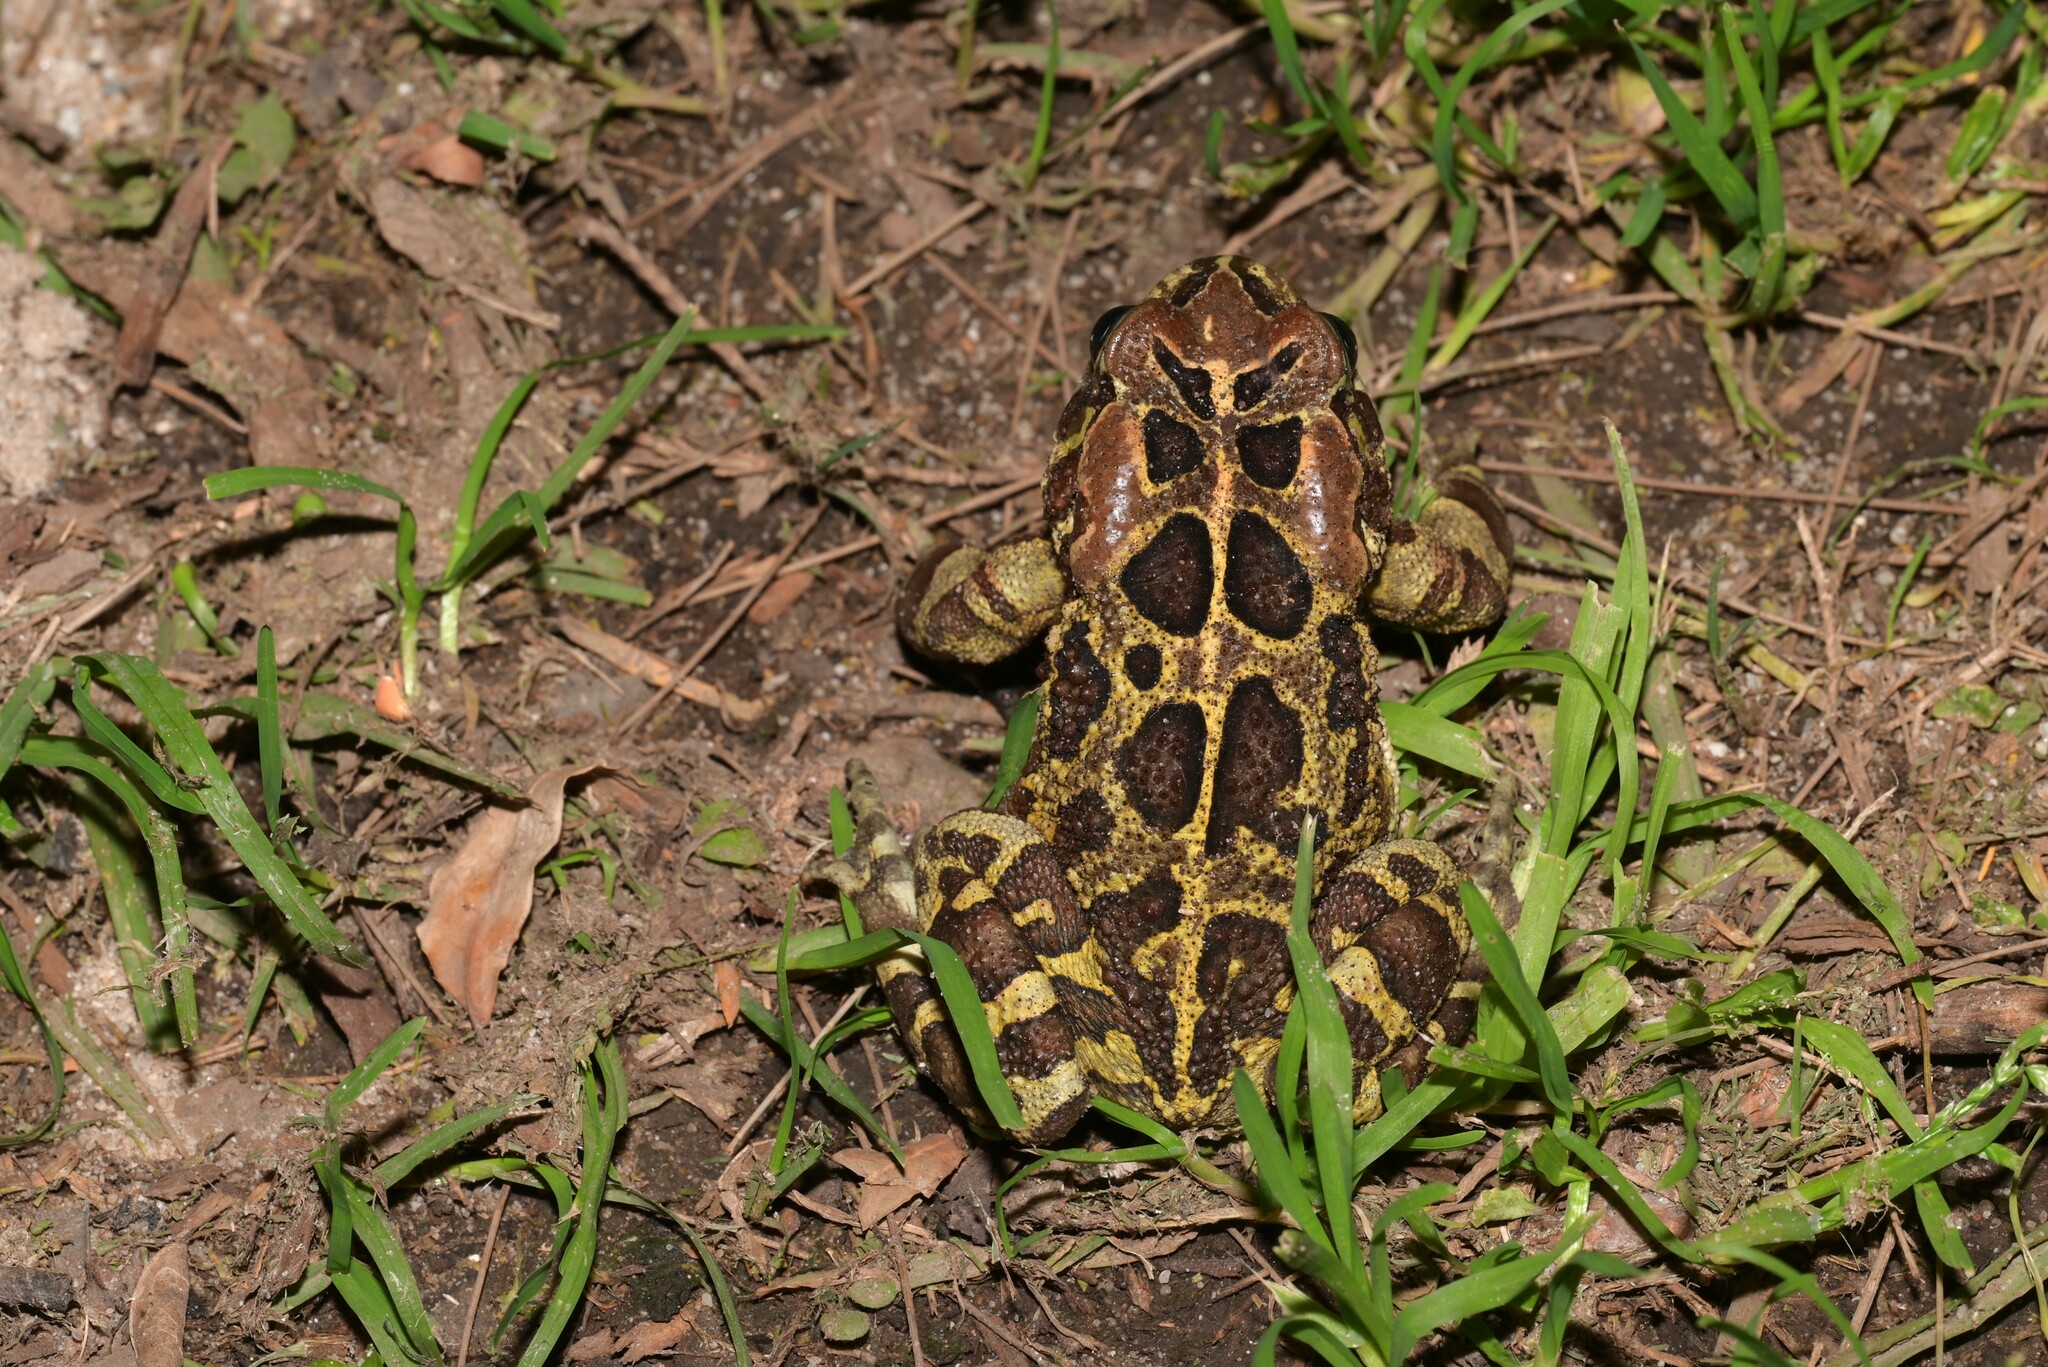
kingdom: Animalia
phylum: Chordata
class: Amphibia
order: Anura
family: Bufonidae
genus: Sclerophrys
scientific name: Sclerophrys pantherina
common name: Panther toad
